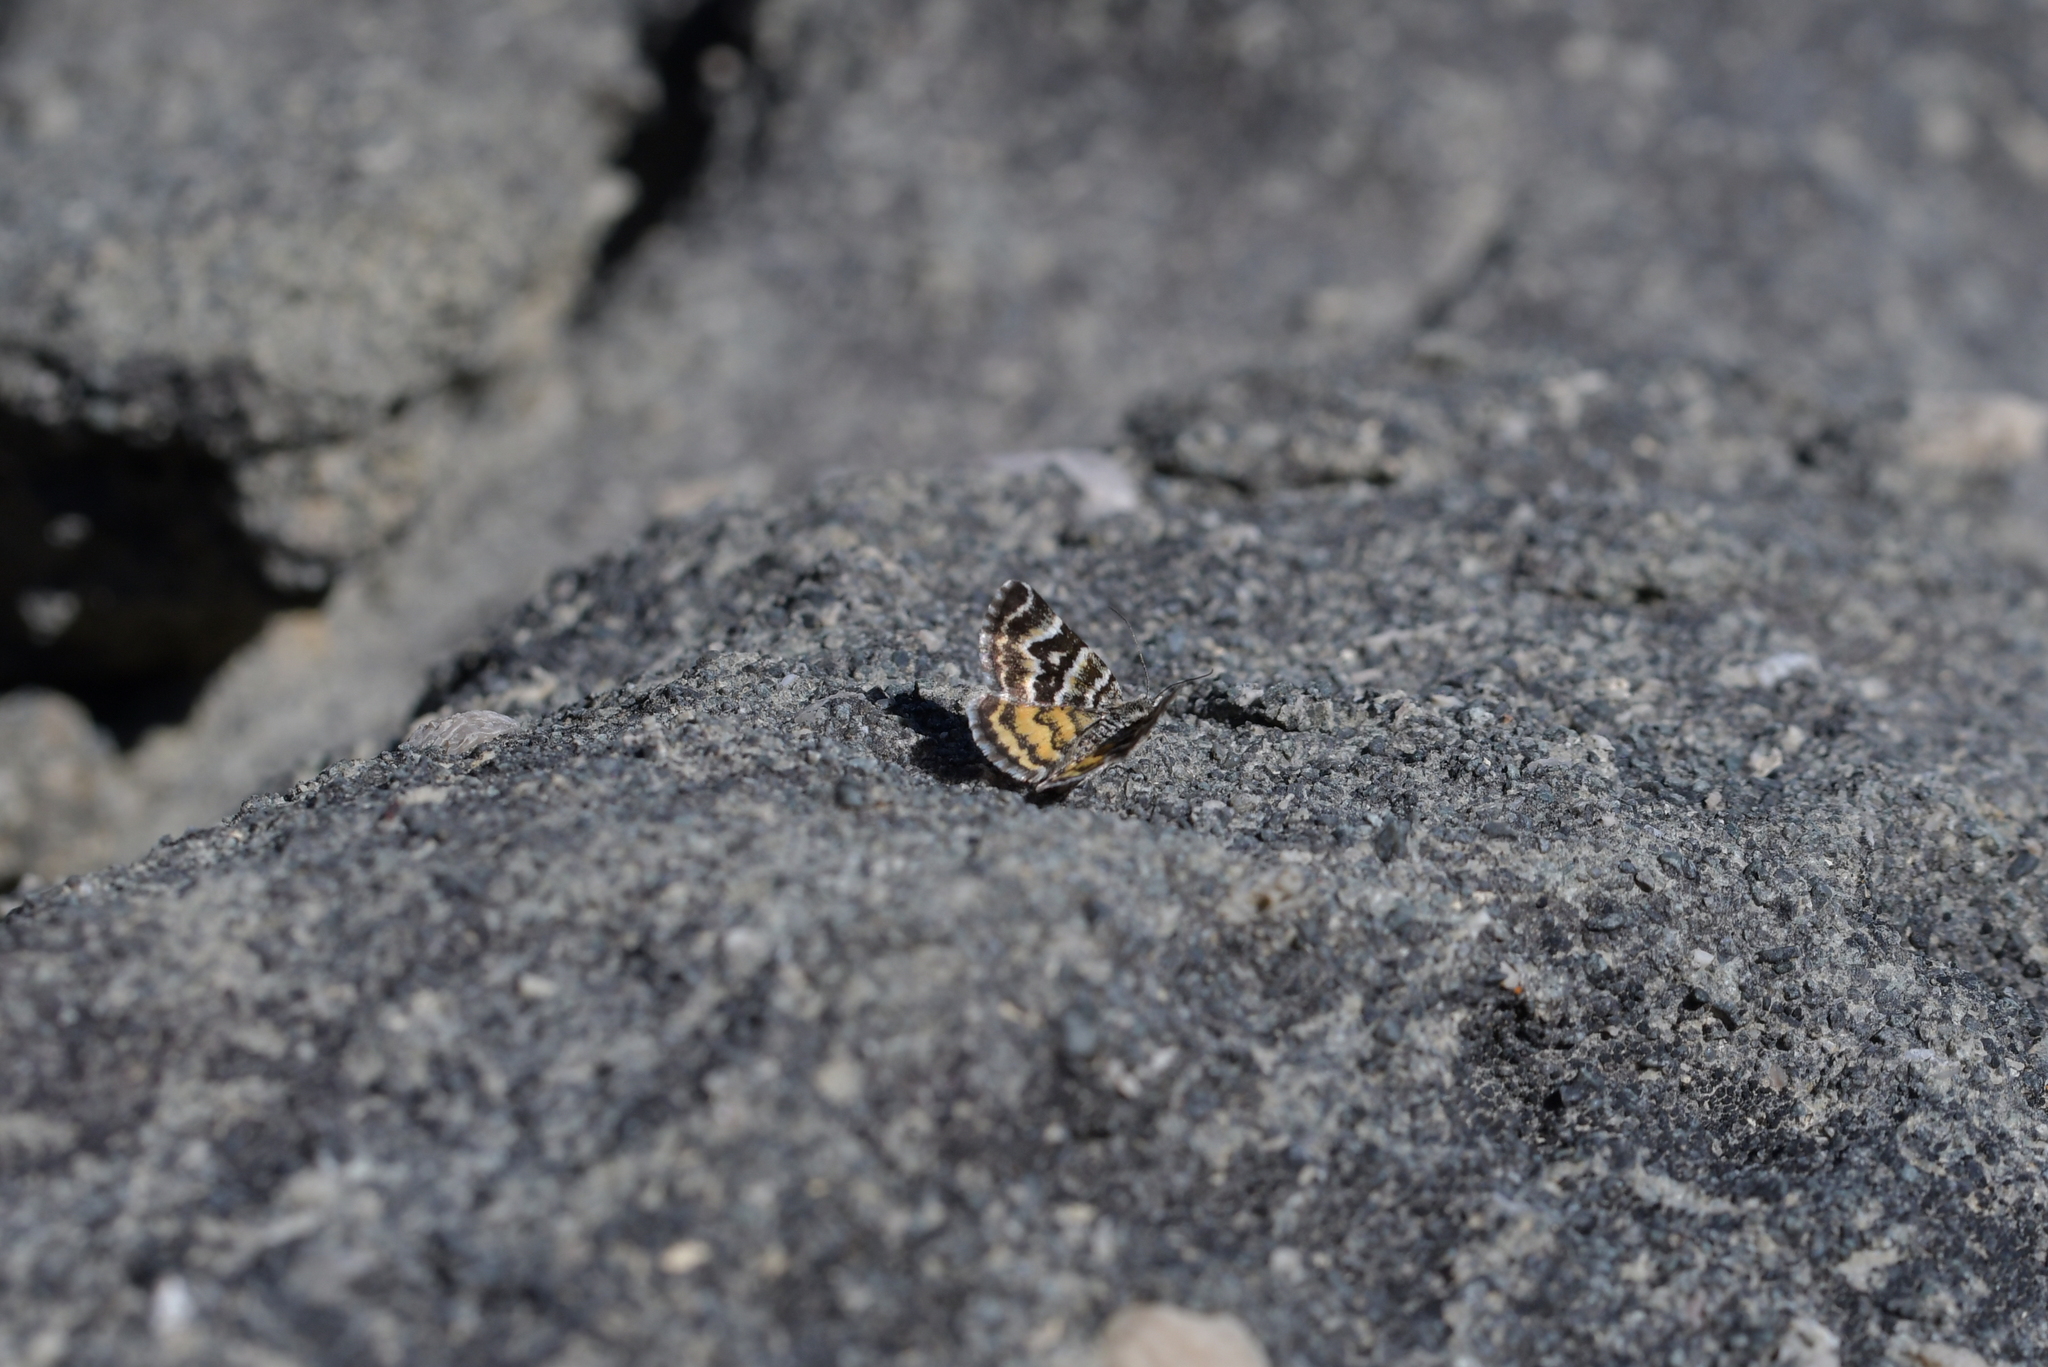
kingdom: Animalia
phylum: Arthropoda
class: Insecta
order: Lepidoptera
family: Geometridae
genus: Notoreas
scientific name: Notoreas perornata
